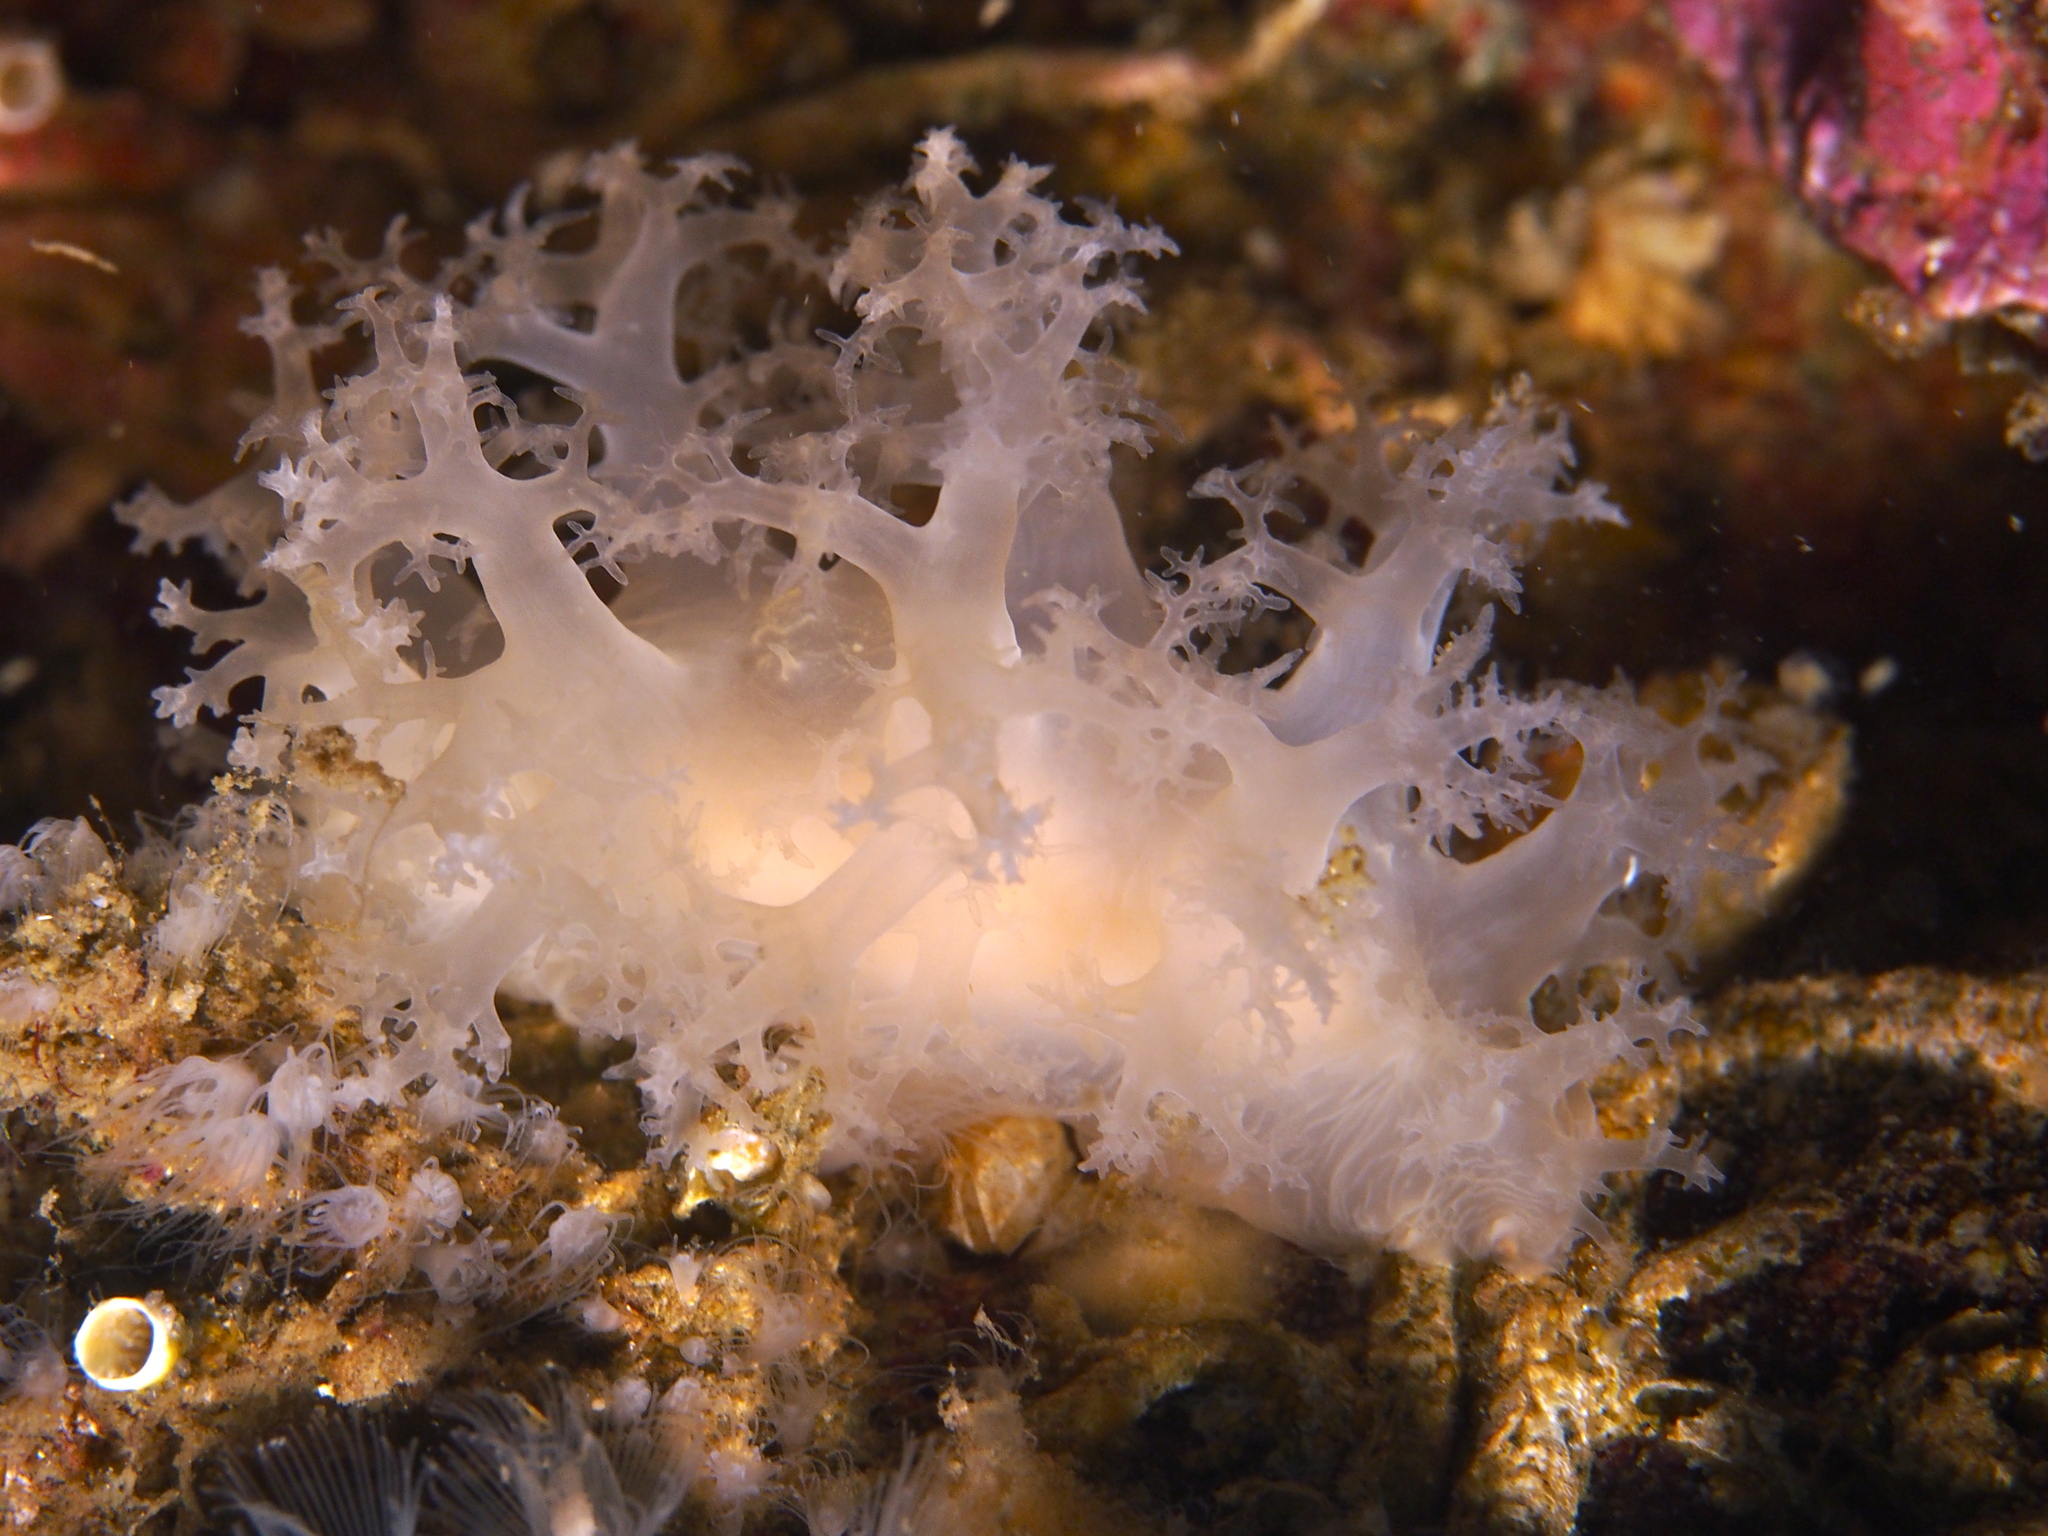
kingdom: Animalia
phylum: Mollusca
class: Gastropoda
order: Nudibranchia
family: Dendronotidae
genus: Dendronotus
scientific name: Dendronotus lacteus
